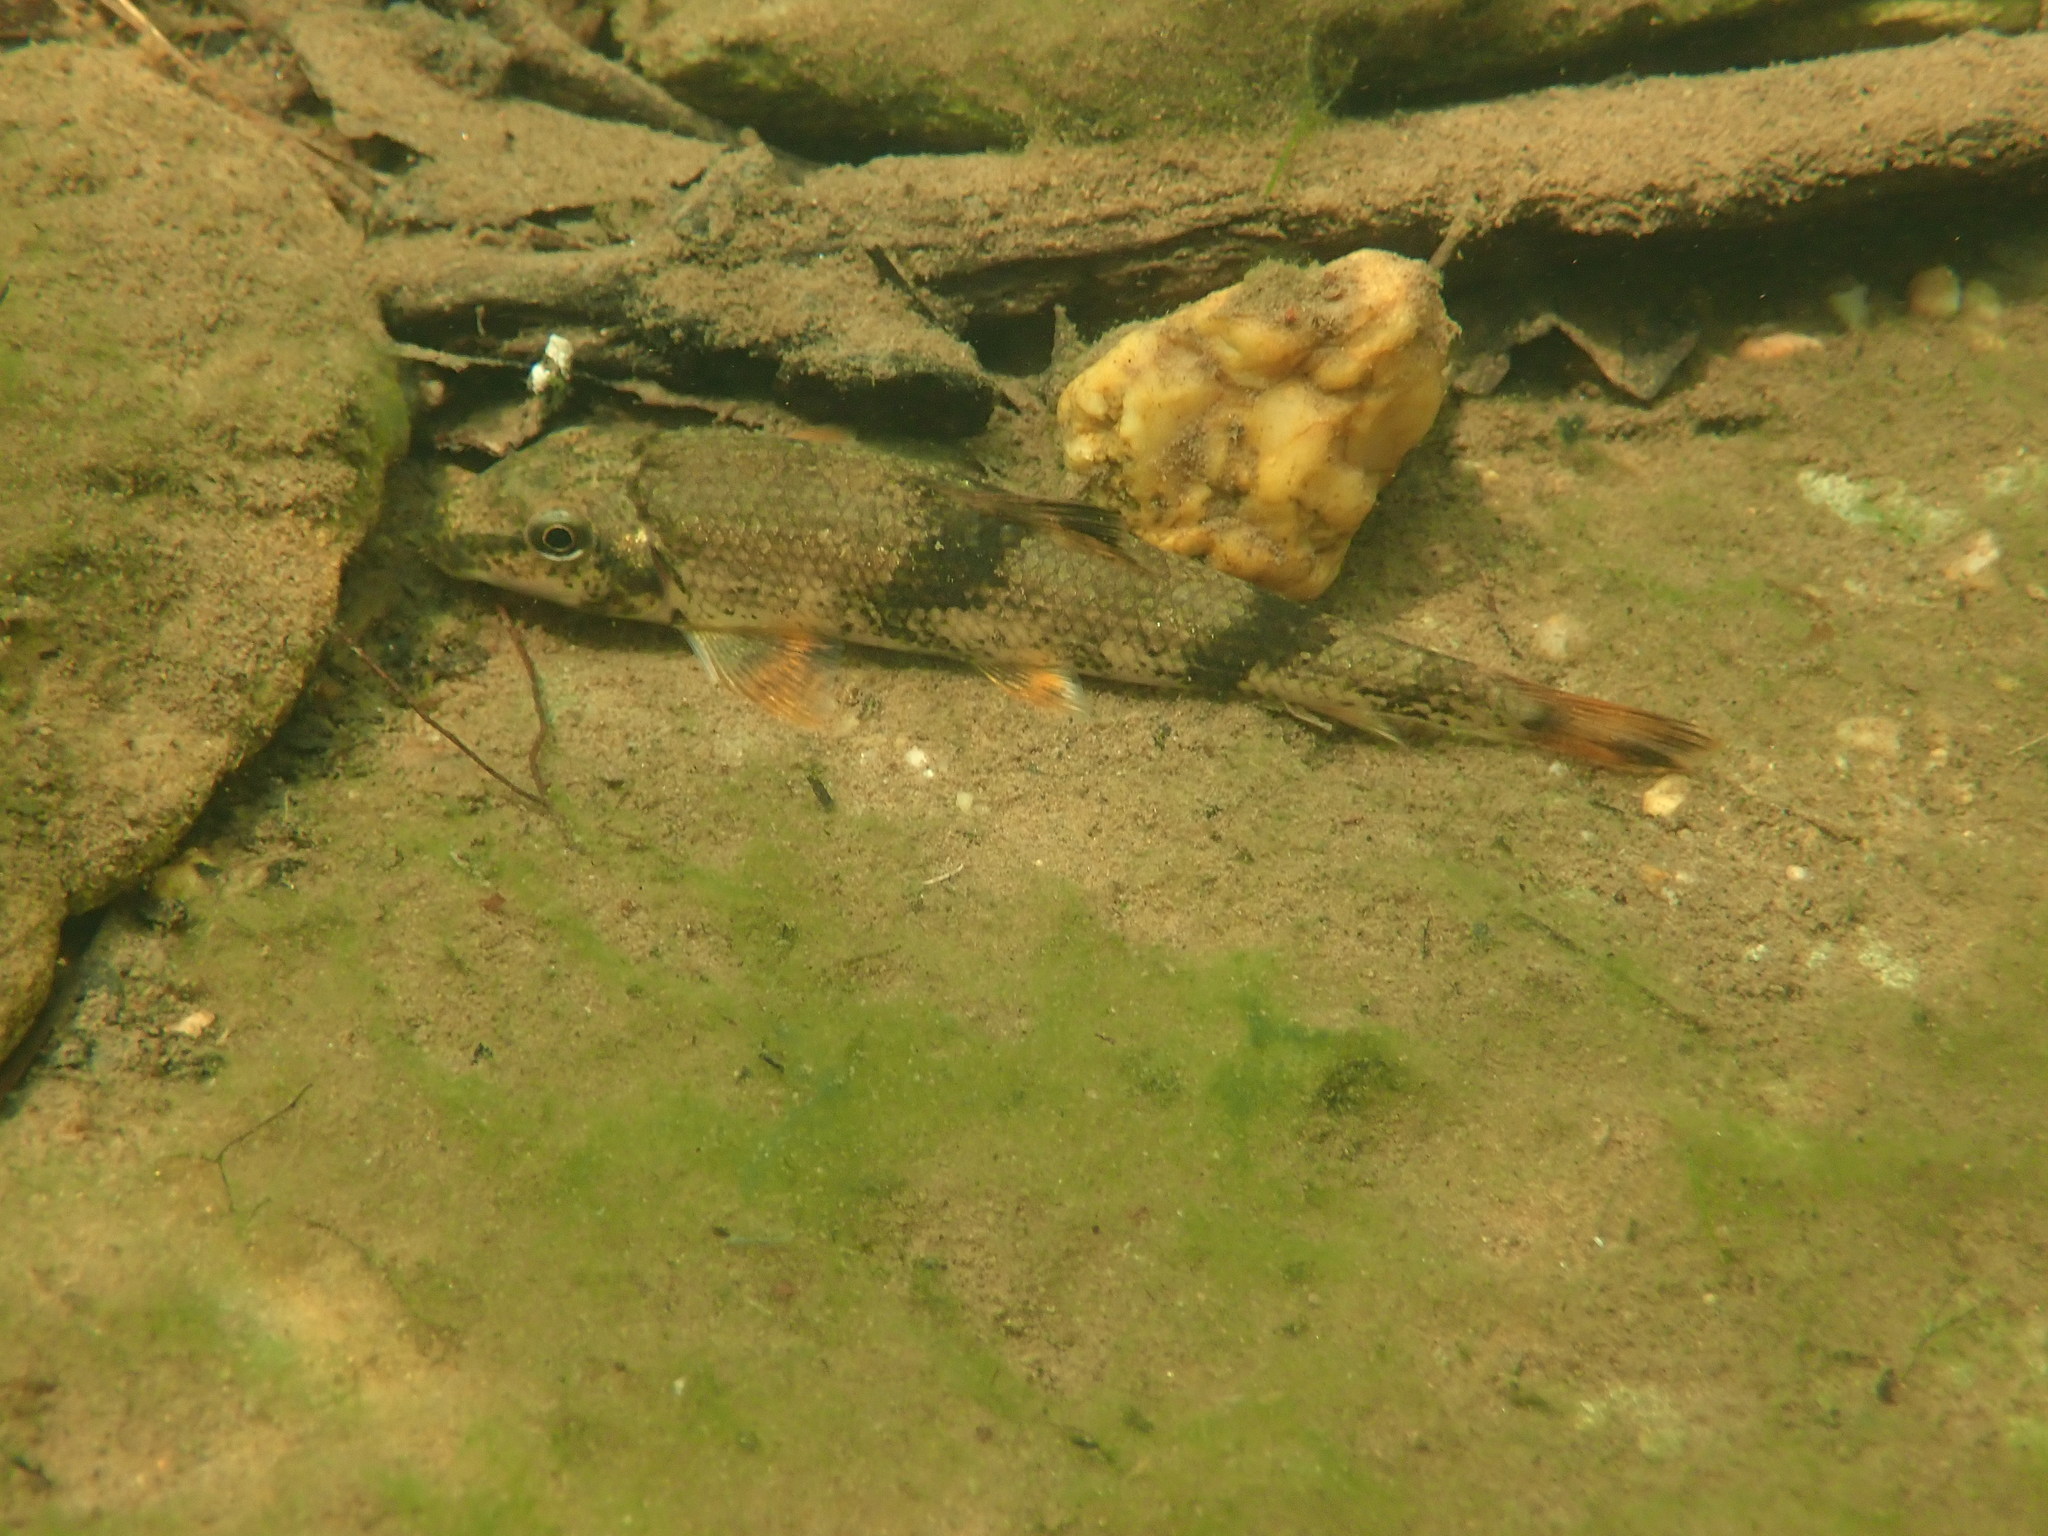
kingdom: Animalia
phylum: Chordata
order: Cypriniformes
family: Catostomidae
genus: Hypentelium
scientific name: Hypentelium etowanum
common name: Alabama hog sucker
